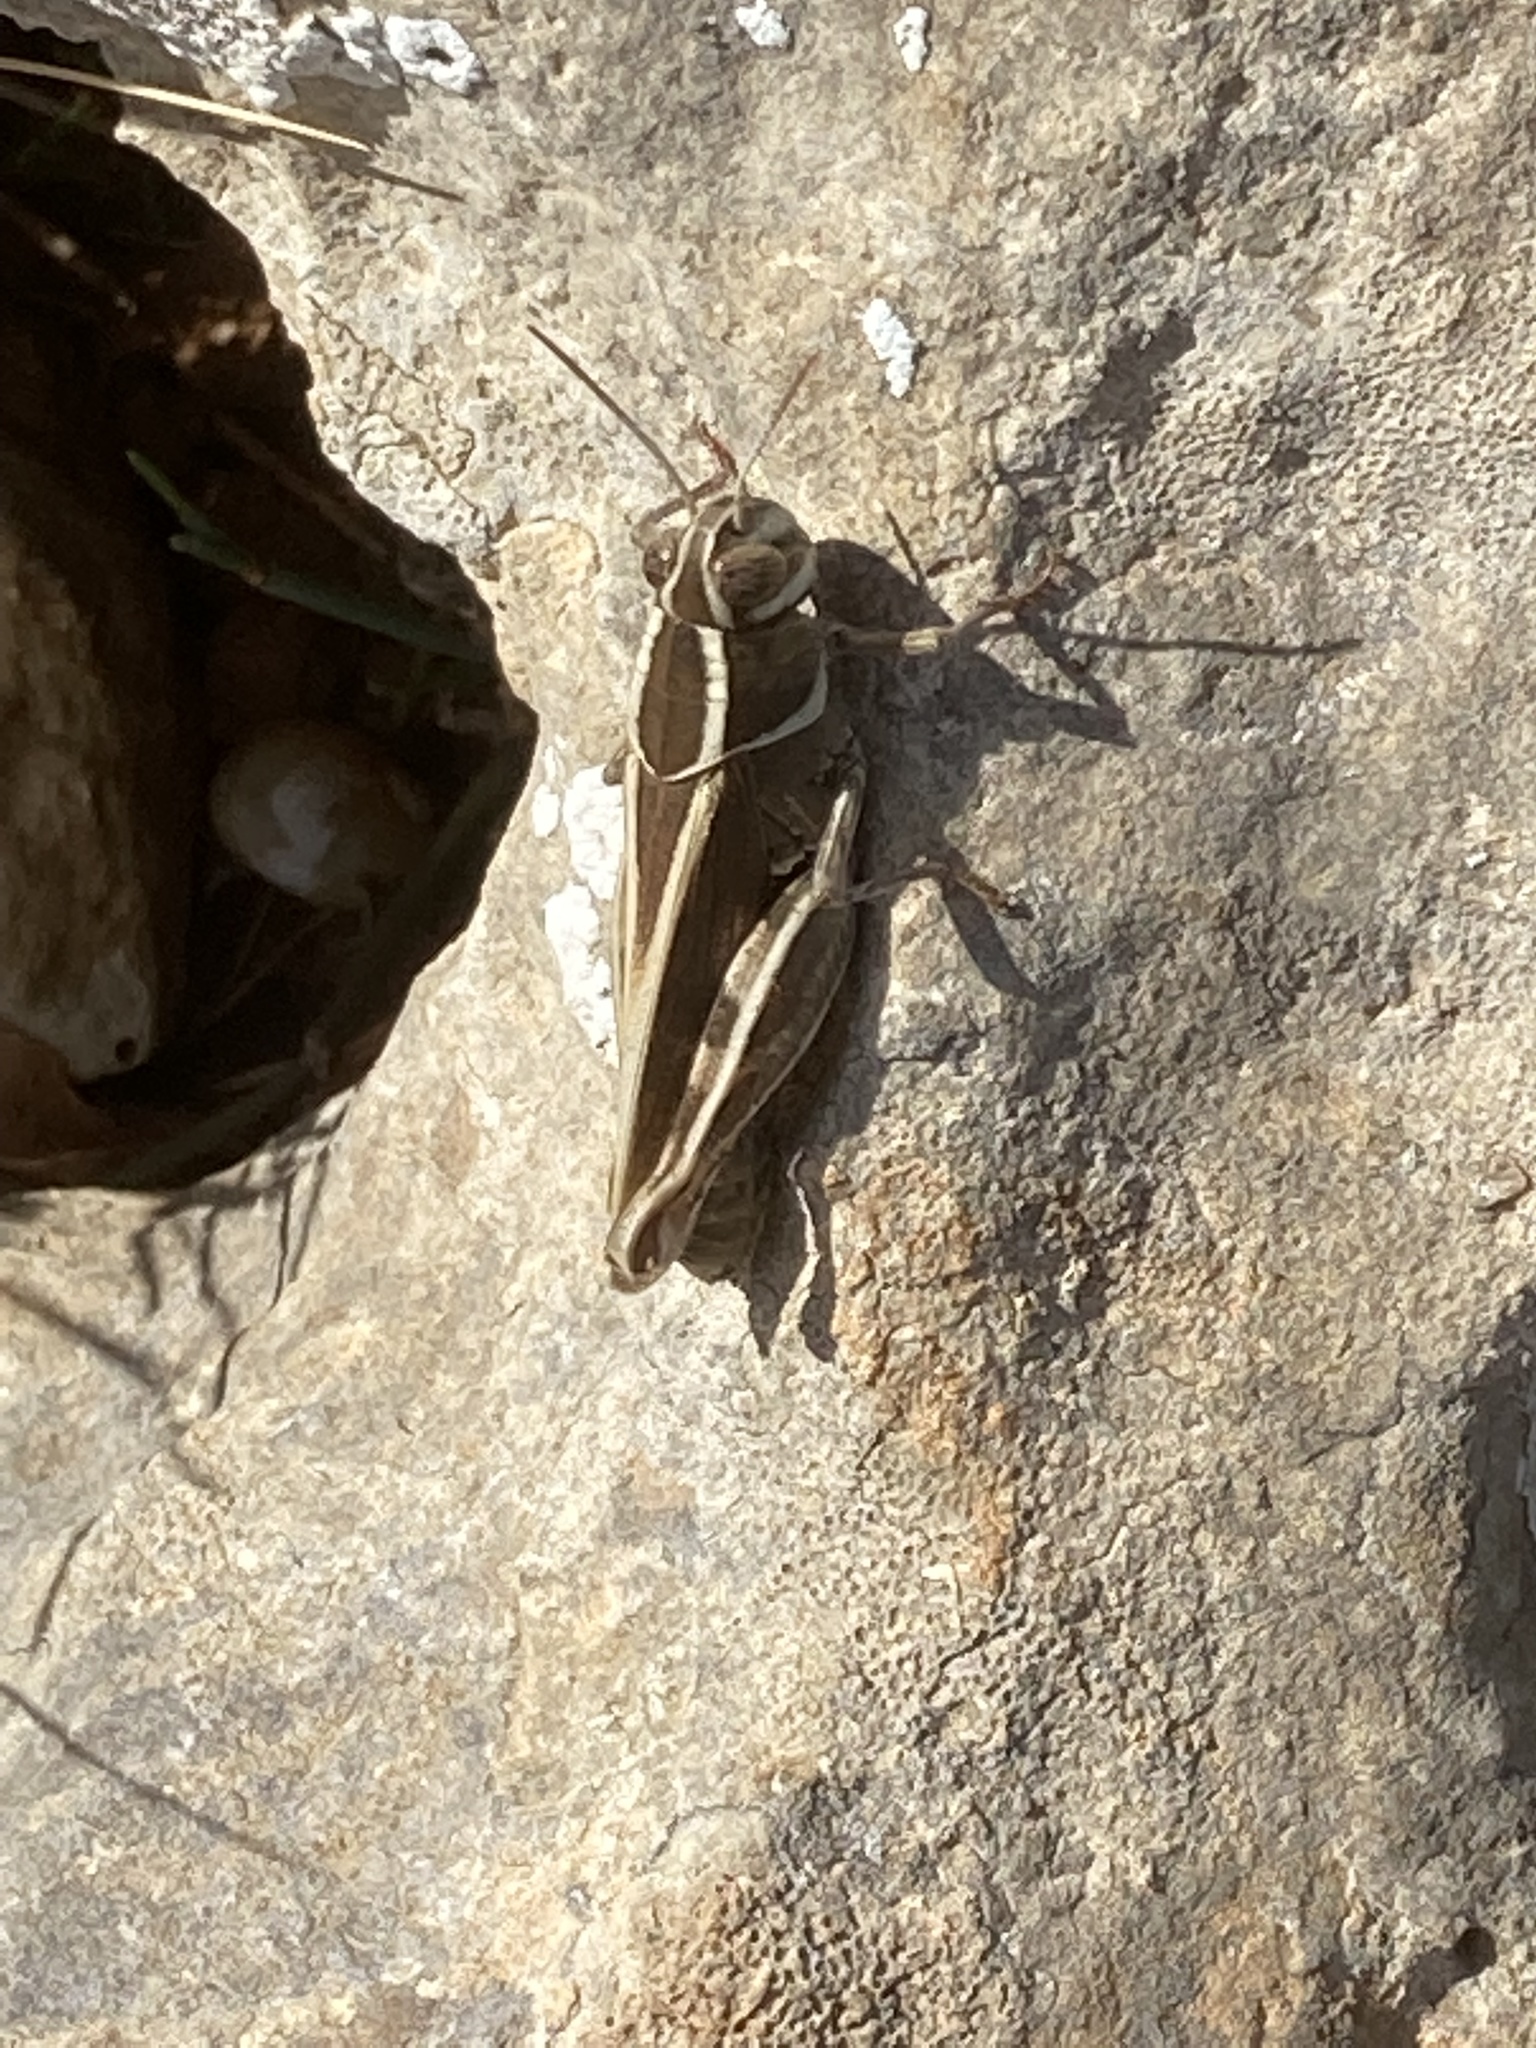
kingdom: Animalia
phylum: Arthropoda
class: Insecta
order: Orthoptera
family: Acrididae
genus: Calliptamus
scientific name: Calliptamus
